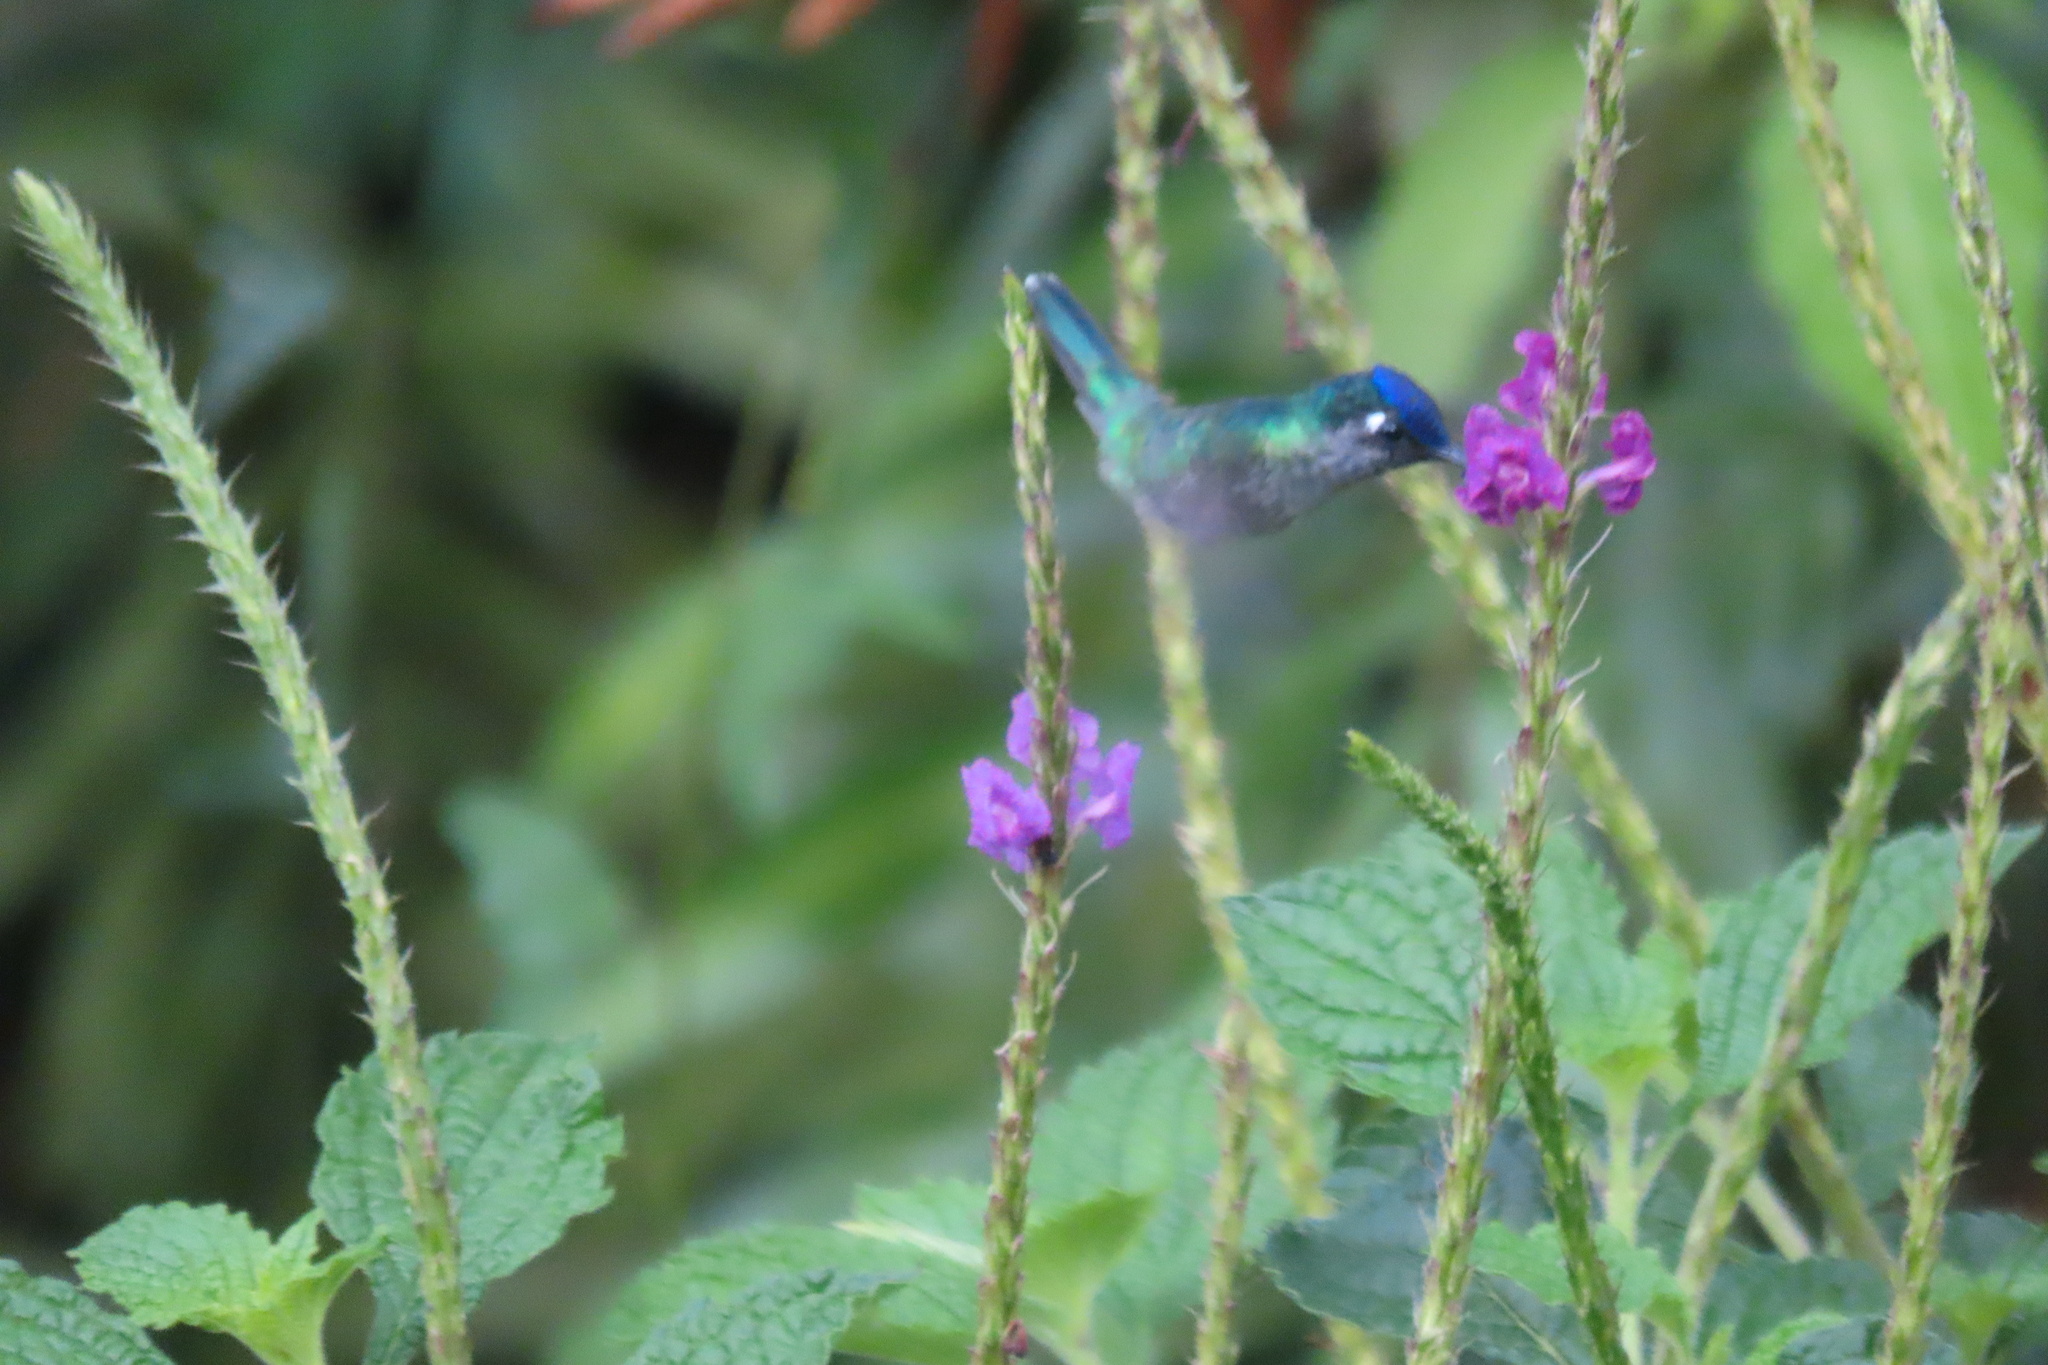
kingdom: Animalia
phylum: Chordata
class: Aves
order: Apodiformes
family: Trochilidae
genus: Klais
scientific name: Klais guimeti
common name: Violet-headed hummingbird
